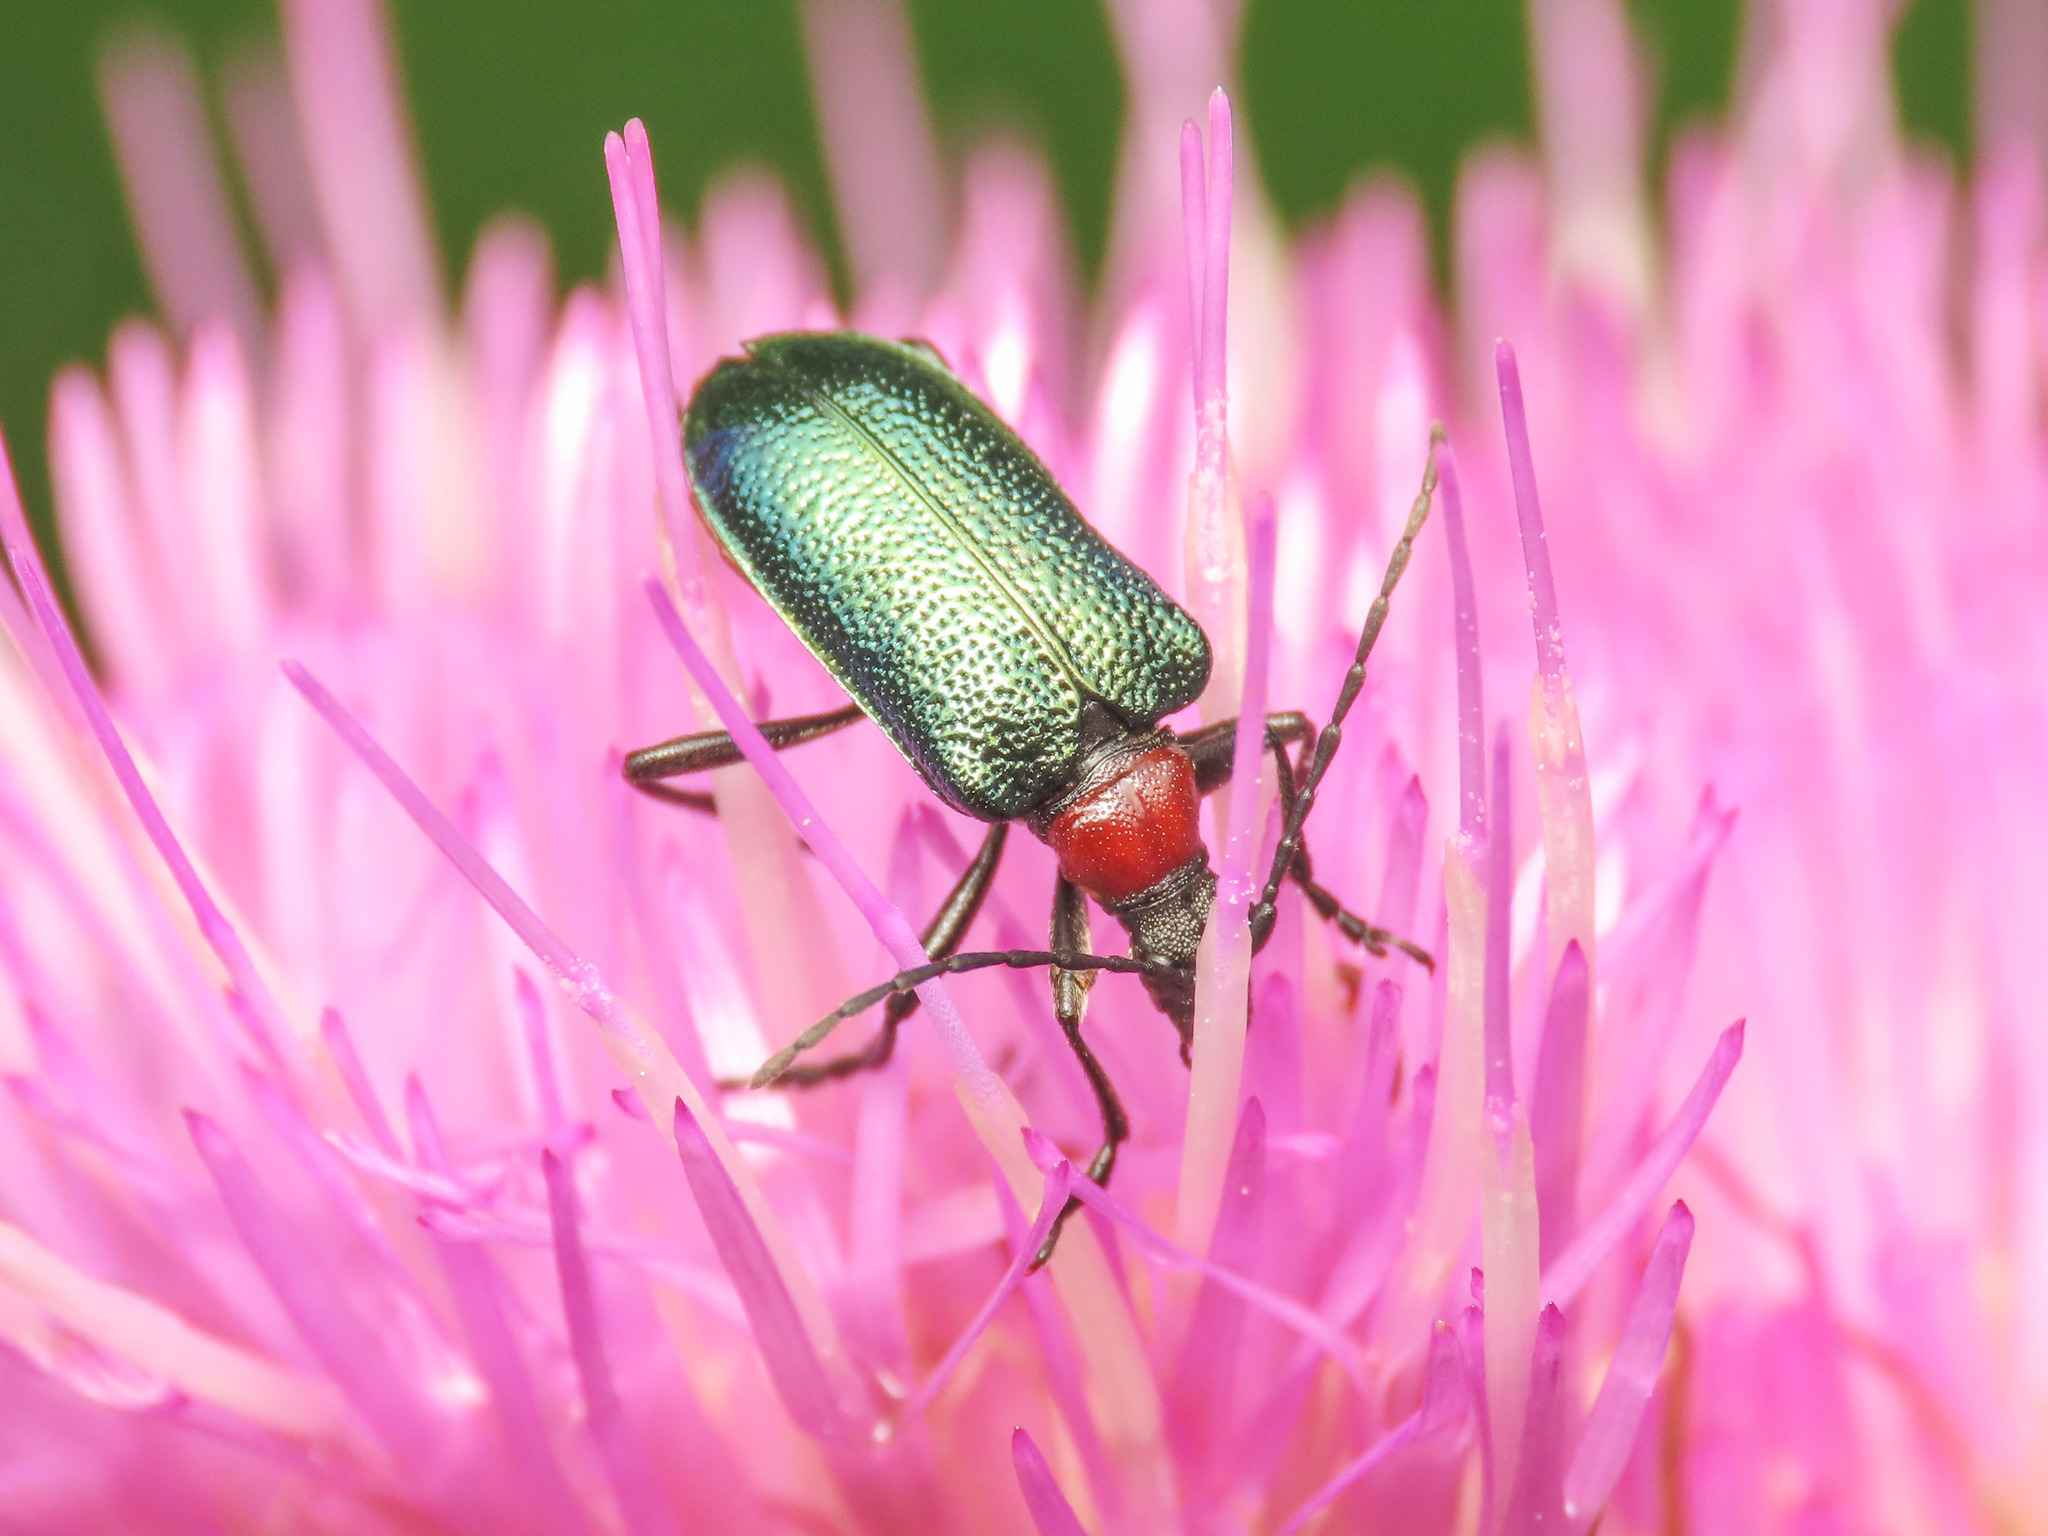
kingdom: Animalia
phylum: Arthropoda
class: Insecta
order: Coleoptera
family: Cerambycidae
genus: Gaurotes
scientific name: Gaurotes virginea
